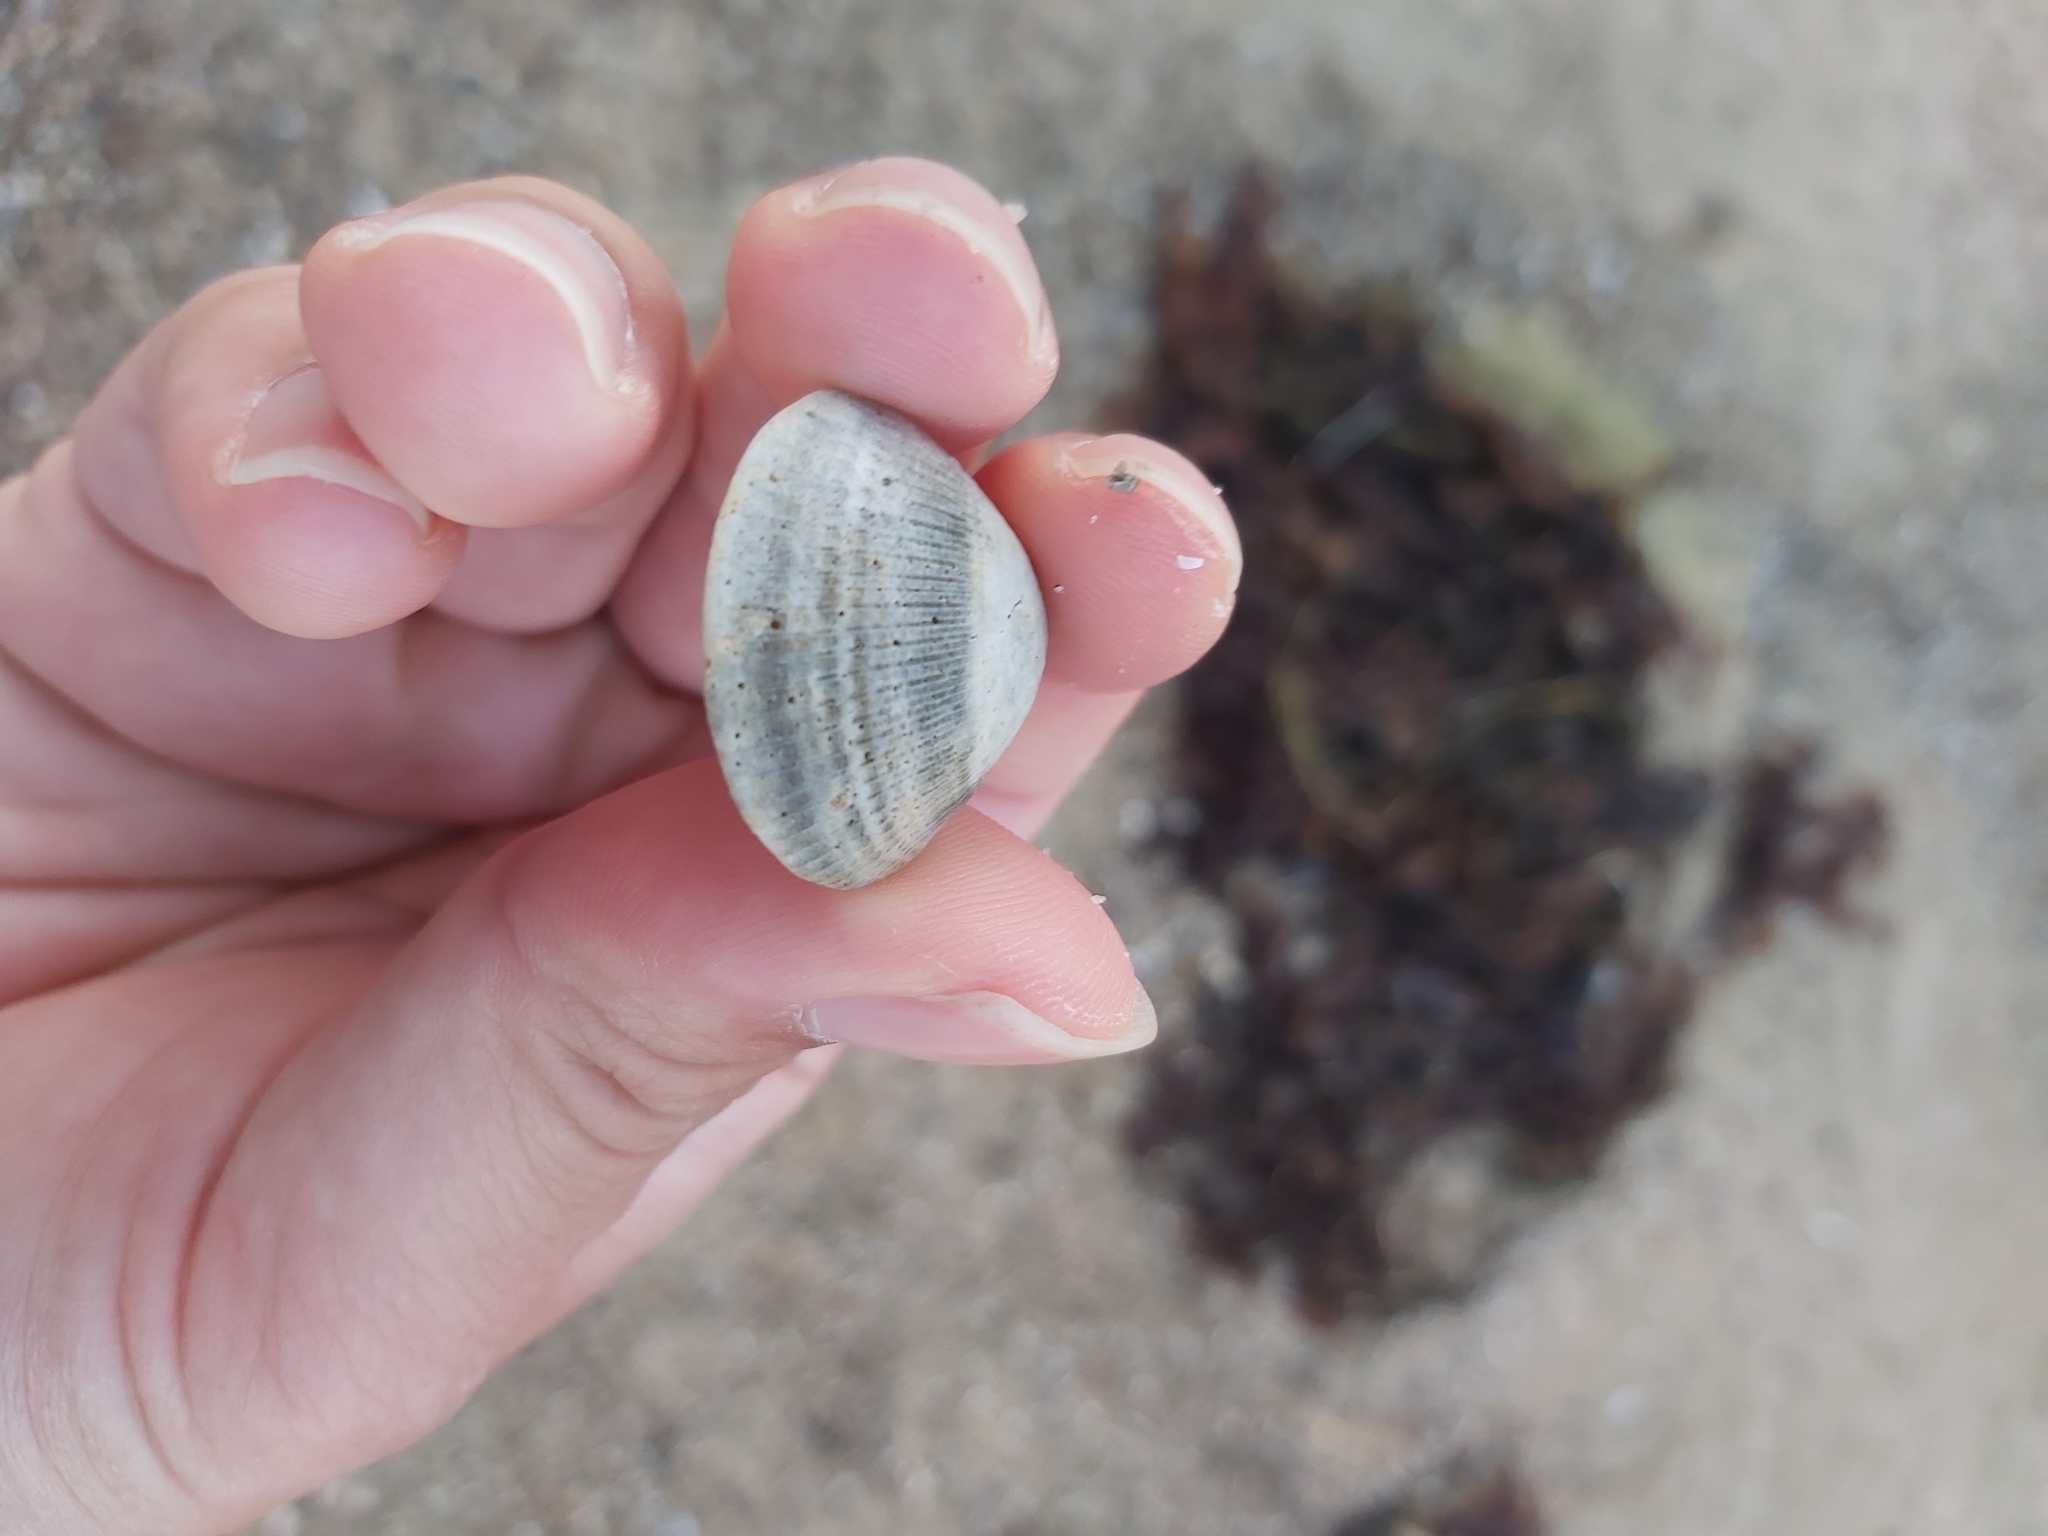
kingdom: Animalia
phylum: Mollusca
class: Bivalvia
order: Arcida
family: Glycymerididae
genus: Glycymeris
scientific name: Glycymeris grayana
